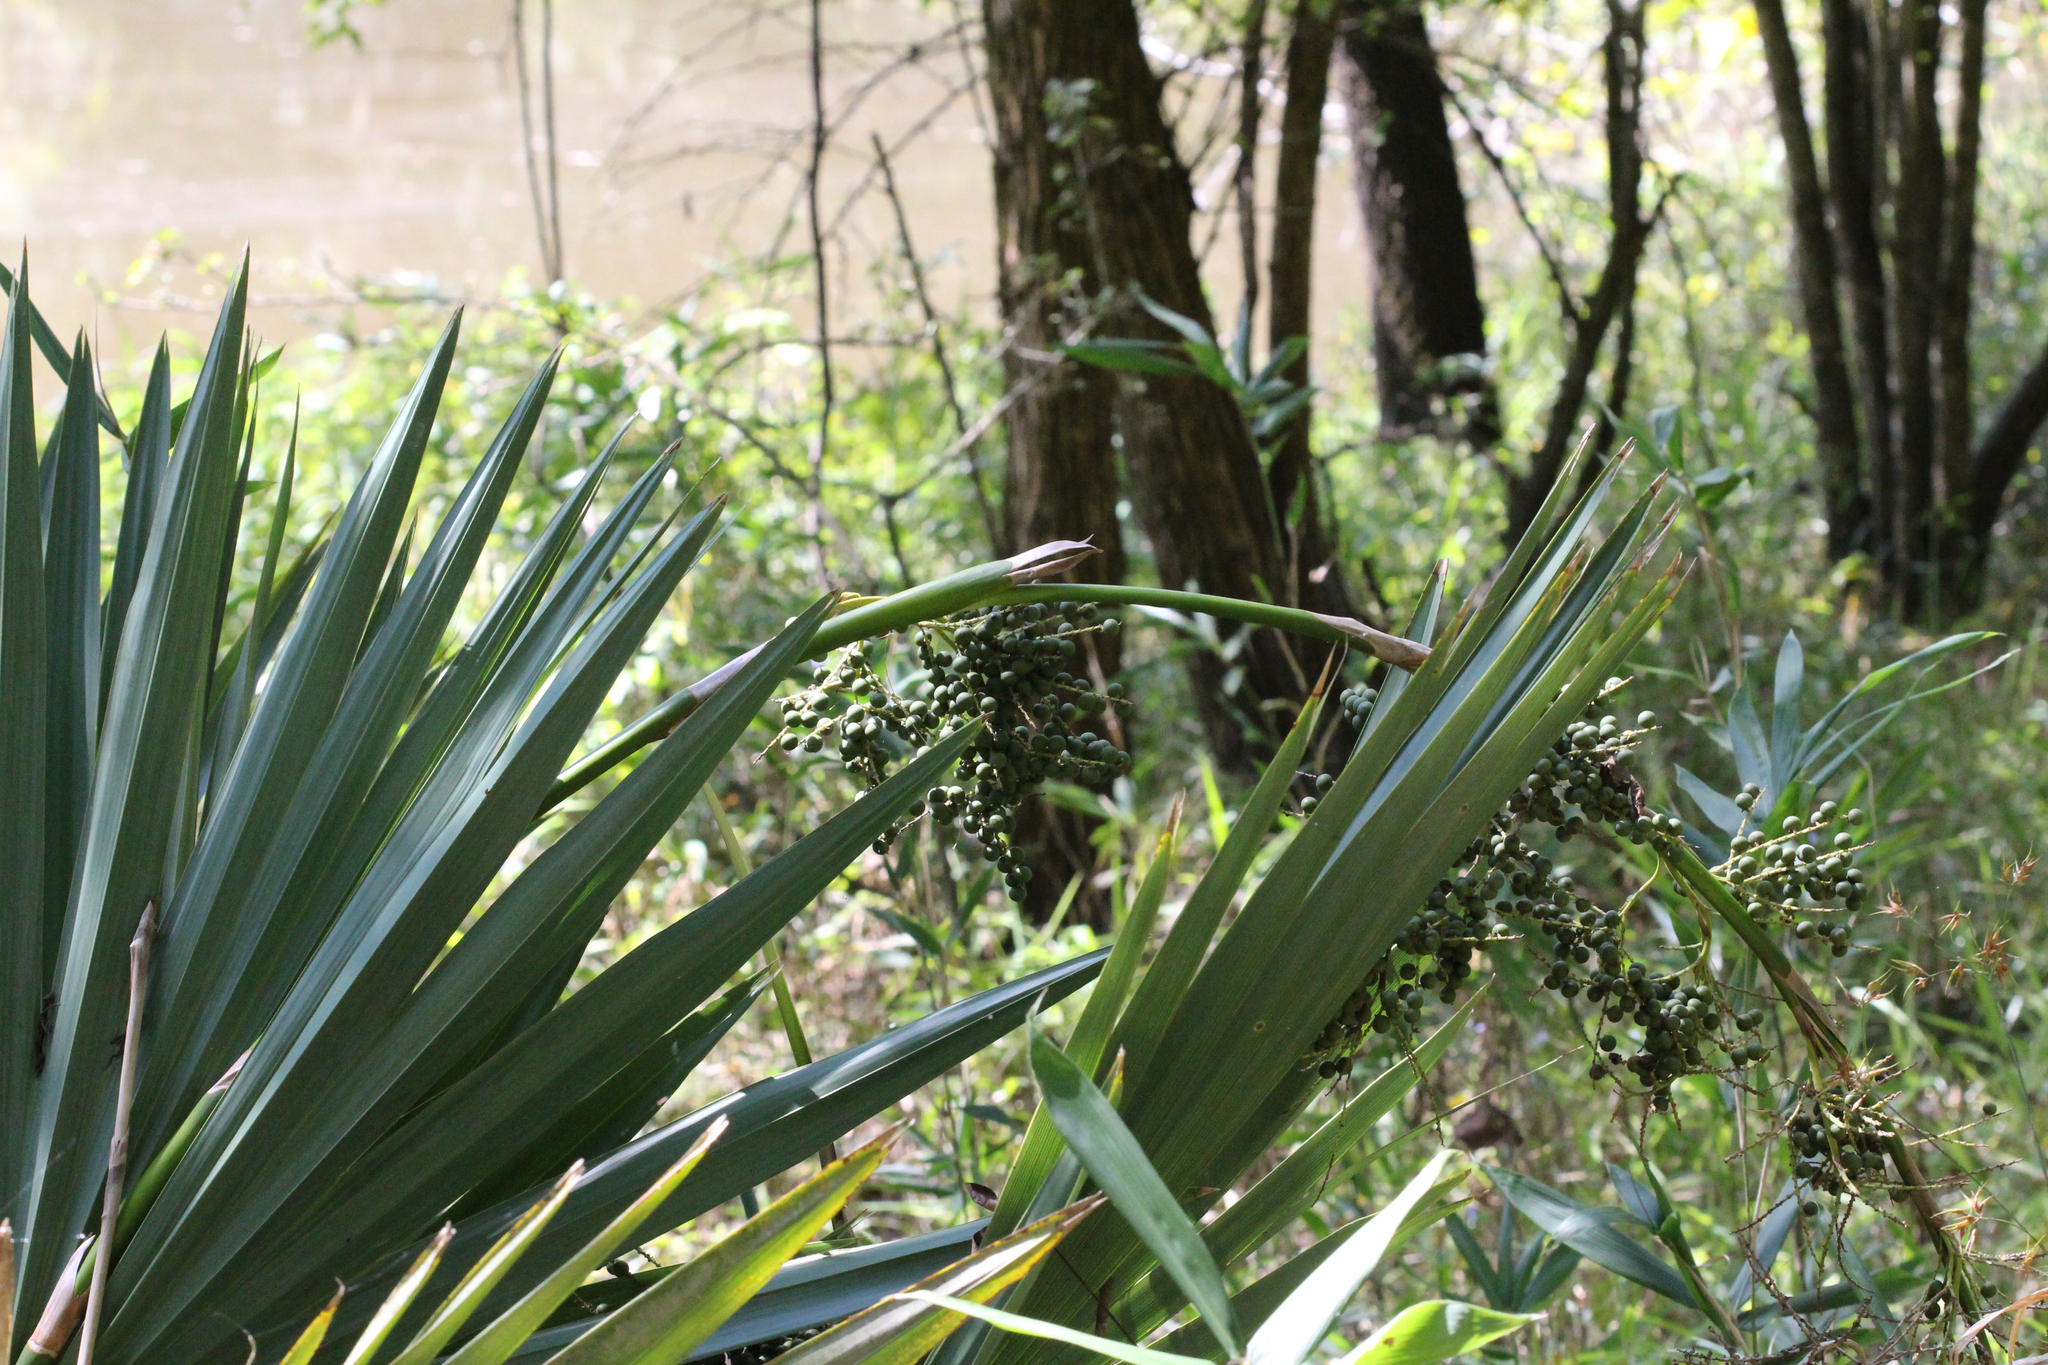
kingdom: Plantae
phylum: Tracheophyta
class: Liliopsida
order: Arecales
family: Arecaceae
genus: Sabal
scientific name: Sabal minor
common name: Dwarf palmetto
